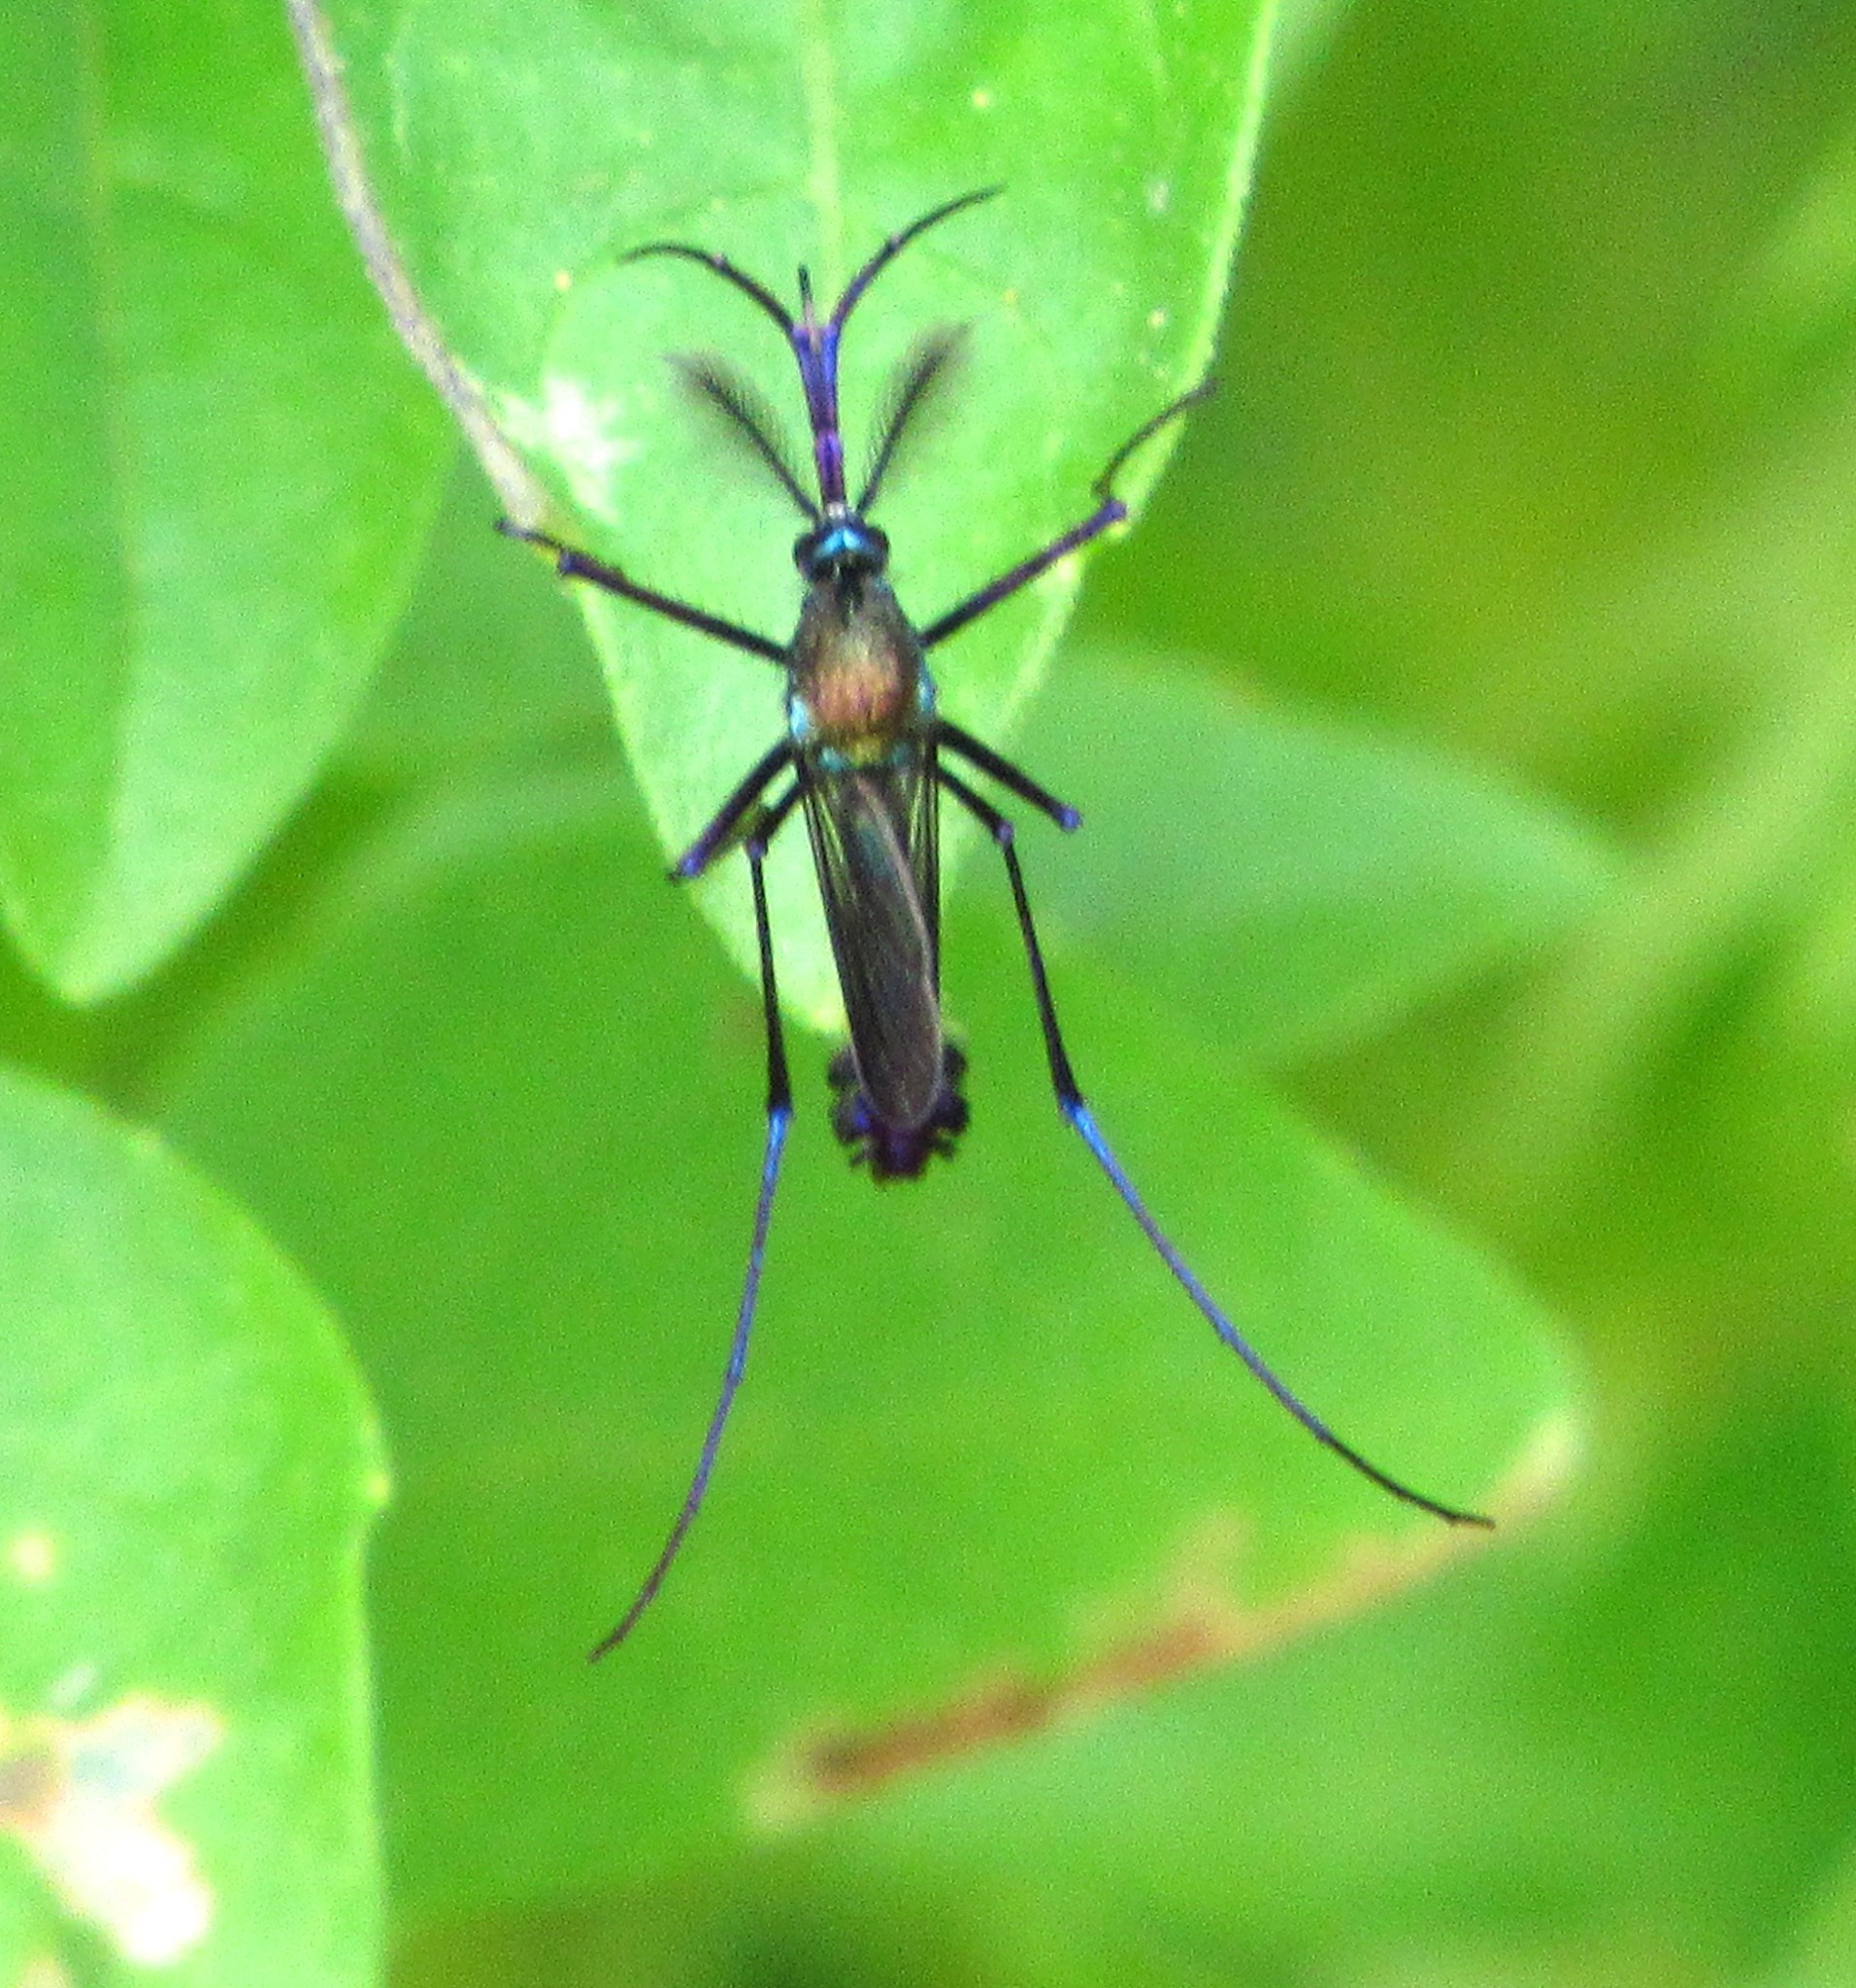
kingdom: Animalia
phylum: Arthropoda
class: Insecta
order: Diptera
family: Culicidae
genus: Toxorhynchites
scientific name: Toxorhynchites haemorrhoidalis
